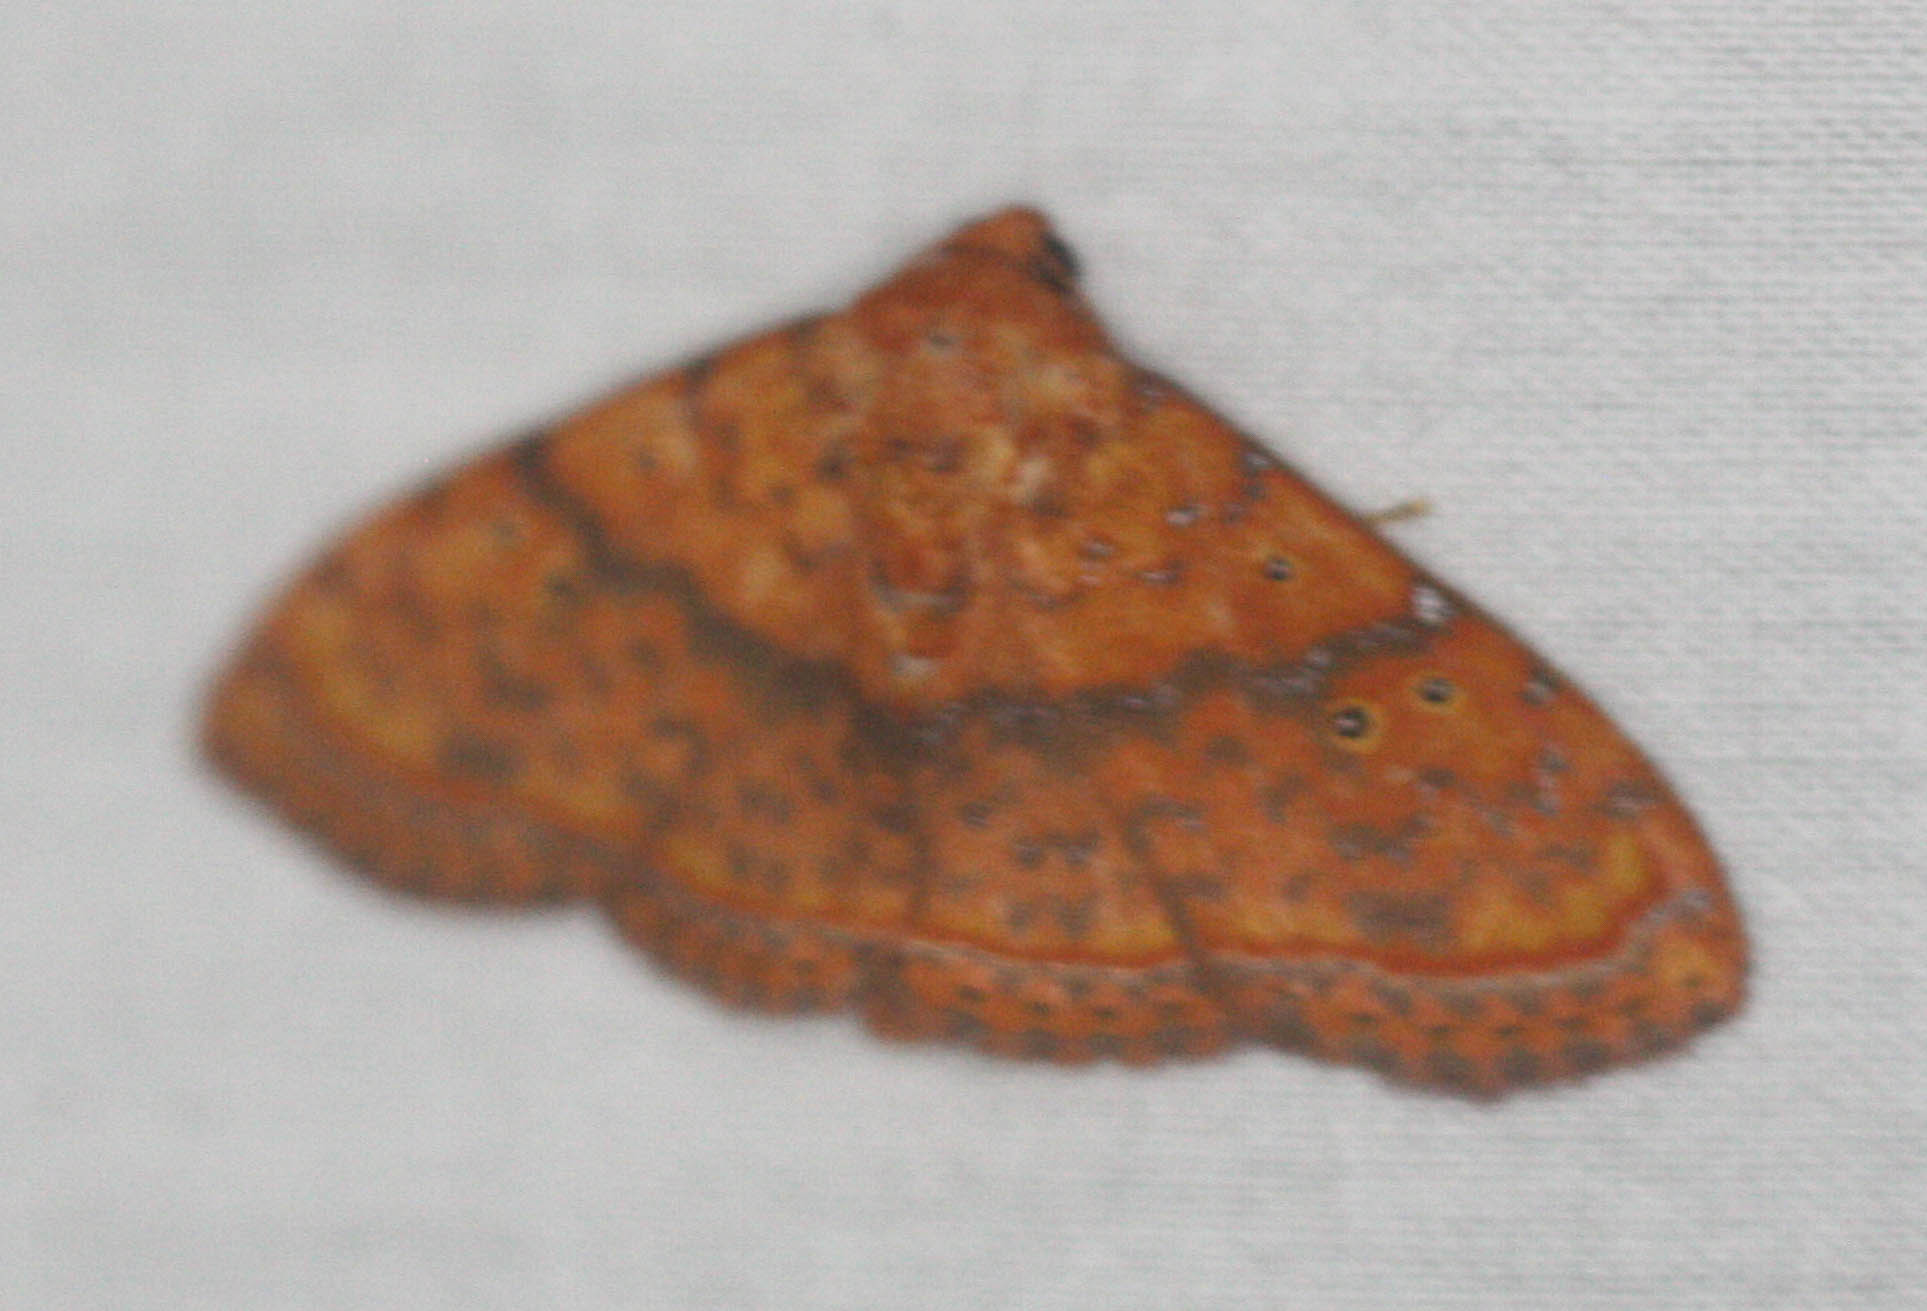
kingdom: Animalia
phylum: Arthropoda
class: Insecta
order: Lepidoptera
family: Erebidae
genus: Homodes
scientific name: Homodes crocea
